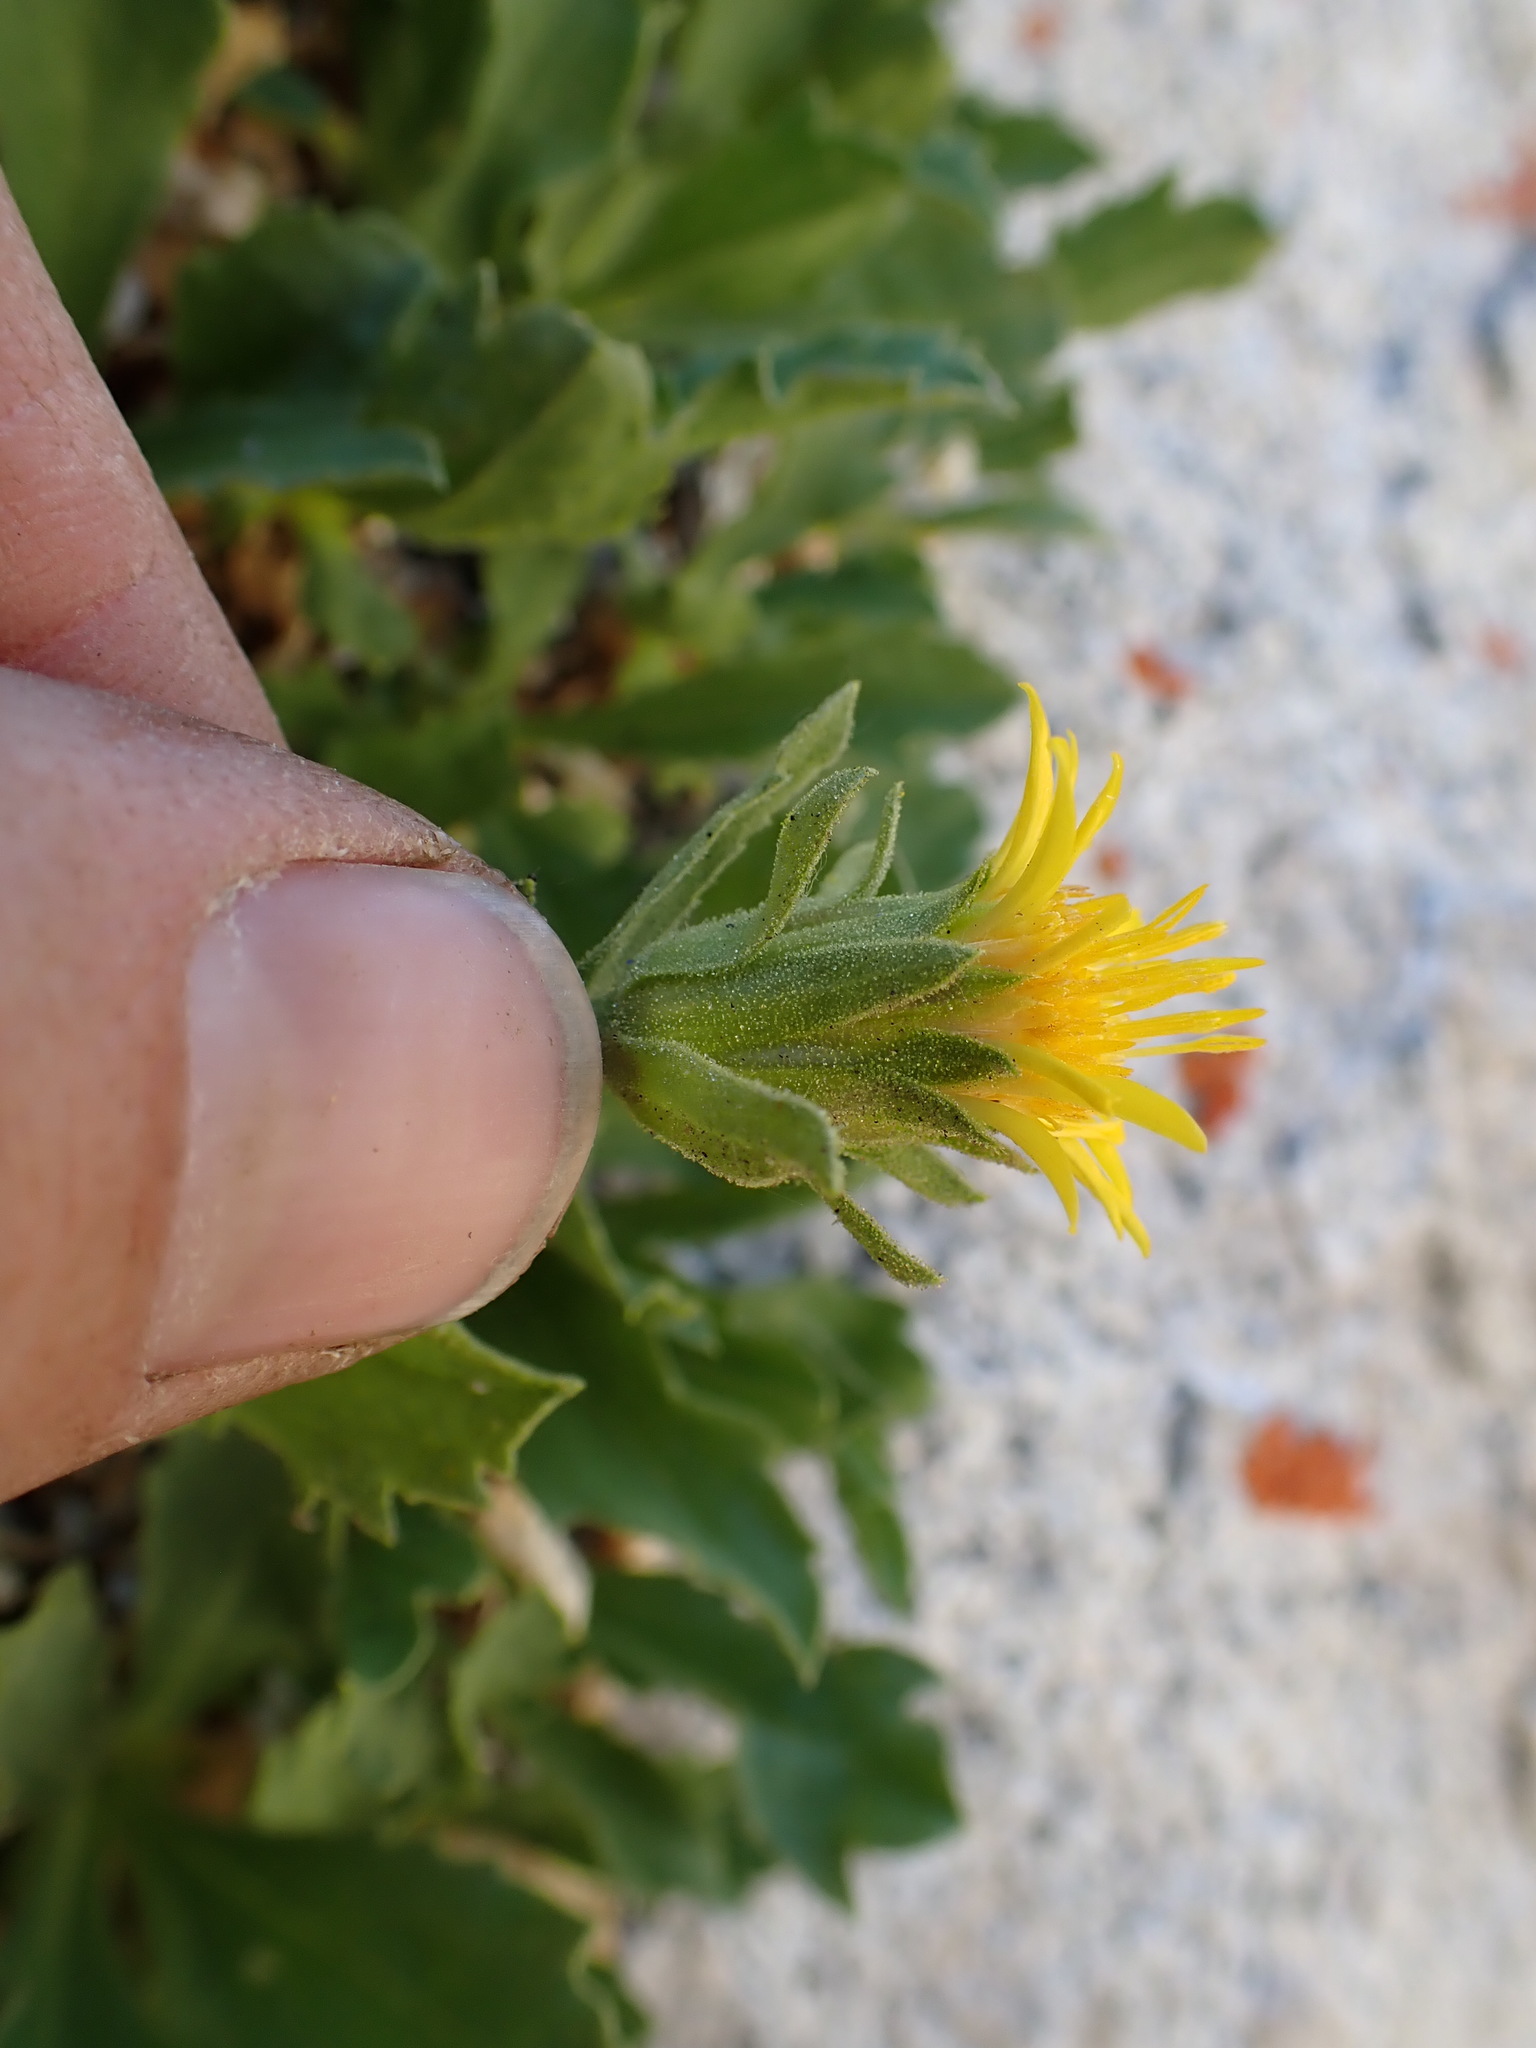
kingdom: Plantae
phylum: Tracheophyta
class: Magnoliopsida
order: Asterales
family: Asteraceae
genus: Toiyabea
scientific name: Toiyabea peirsonii
